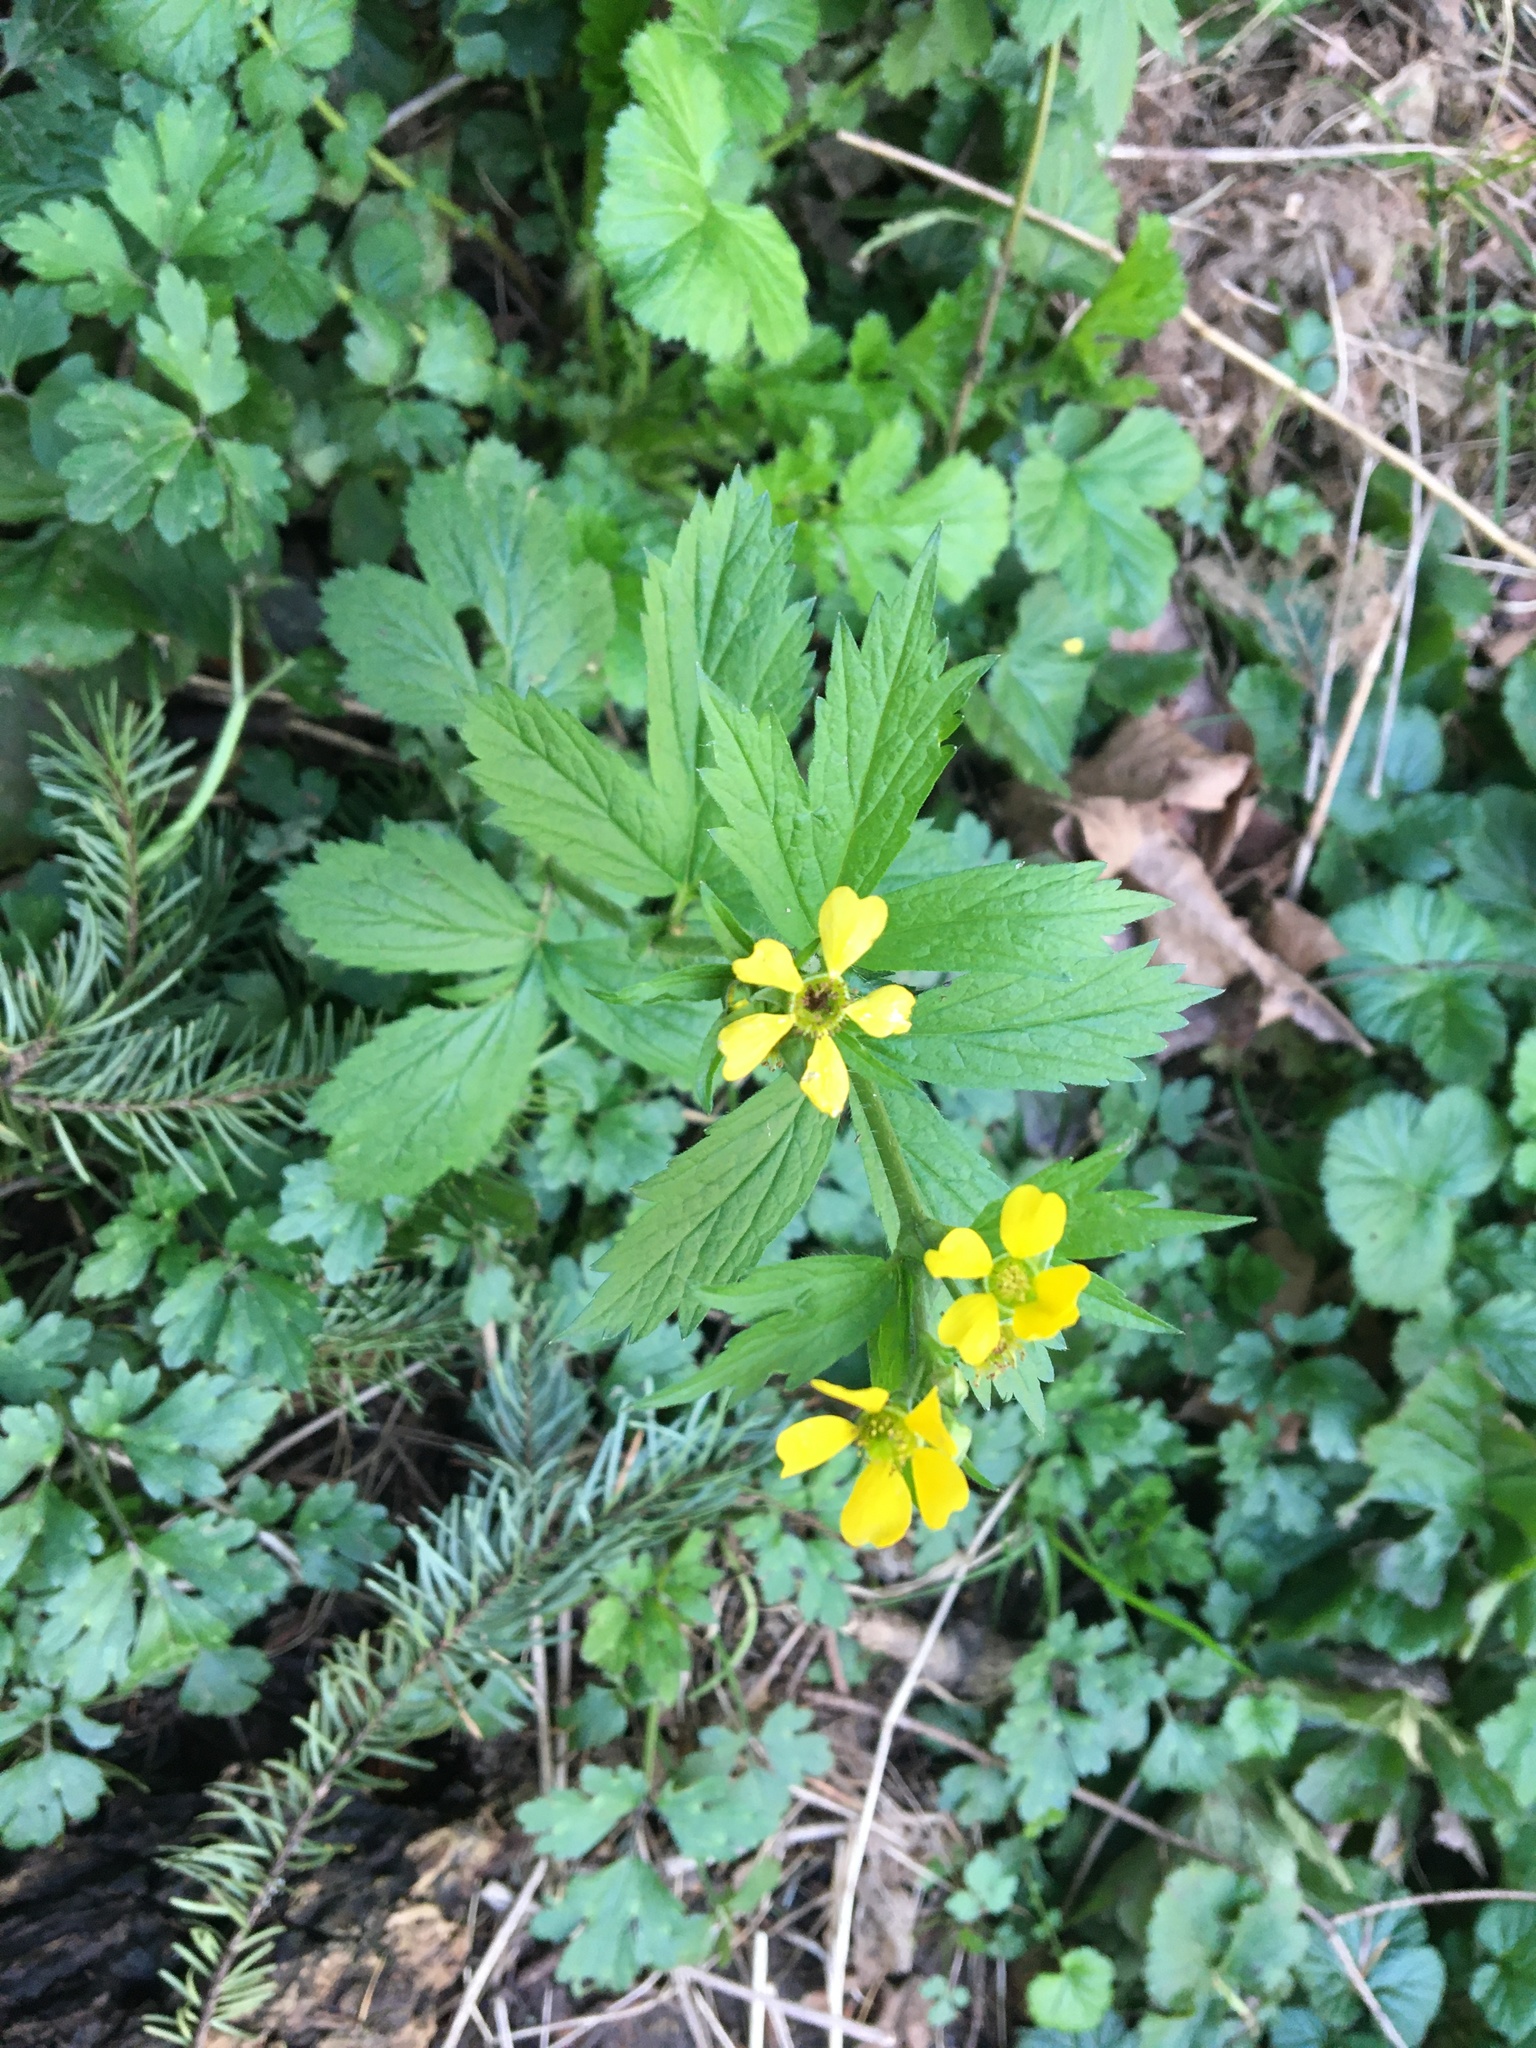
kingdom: Plantae
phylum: Tracheophyta
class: Magnoliopsida
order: Rosales
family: Rosaceae
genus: Geum
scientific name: Geum macrophyllum
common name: Large-leaved avens
